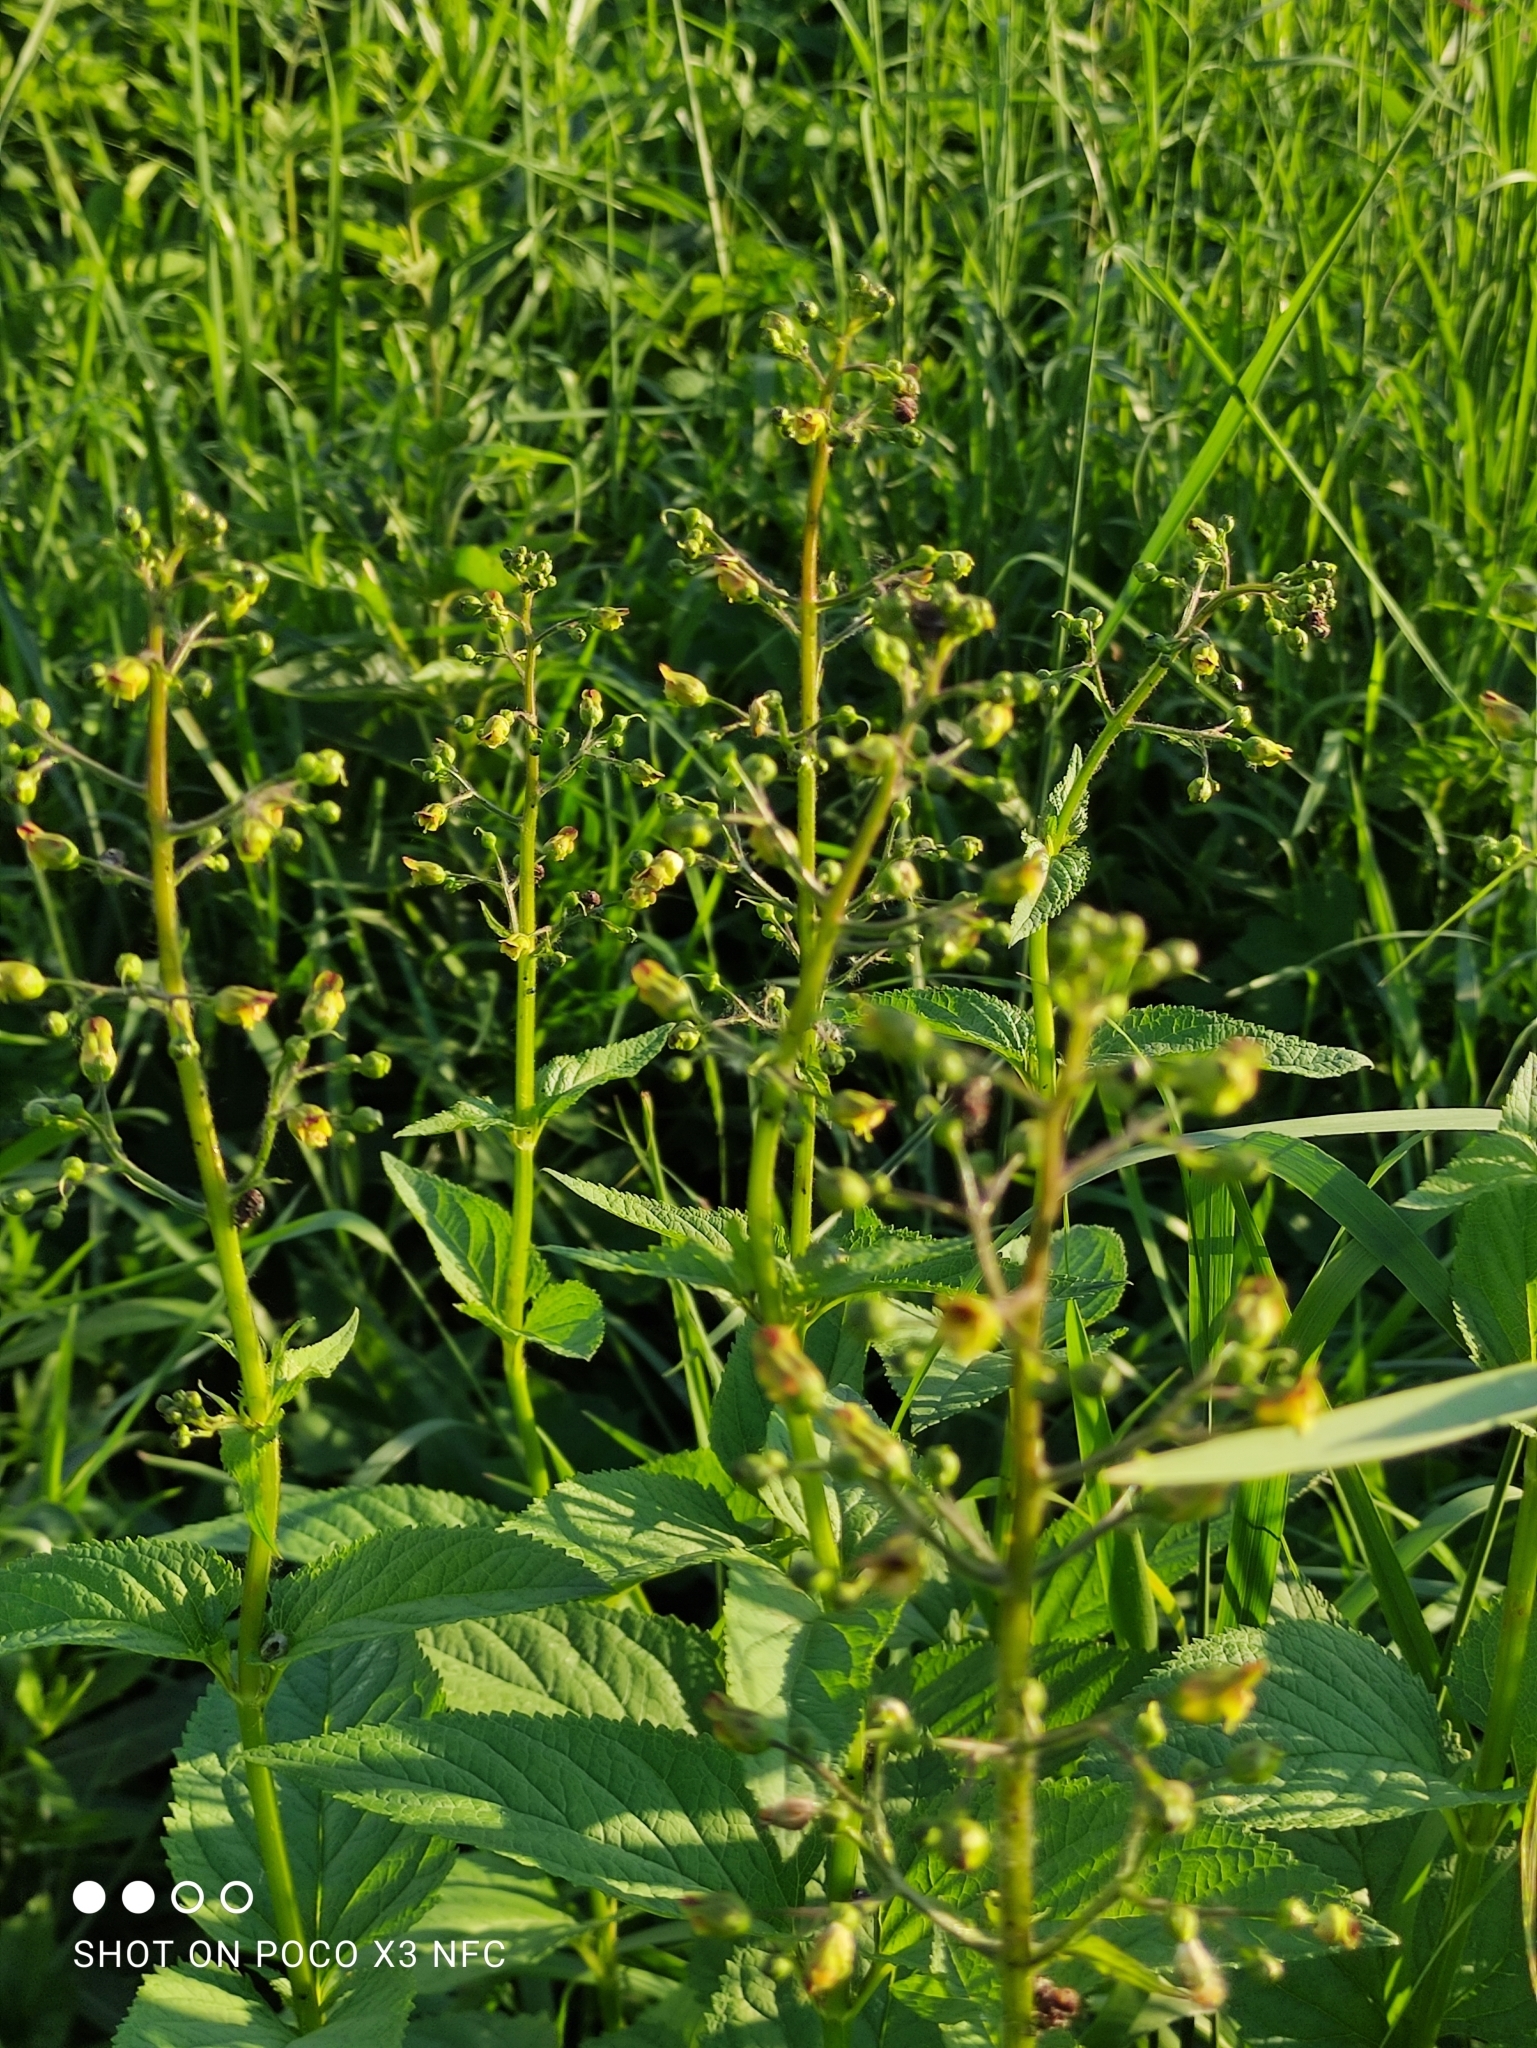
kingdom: Plantae
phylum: Tracheophyta
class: Magnoliopsida
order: Lamiales
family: Scrophulariaceae
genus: Scrophularia
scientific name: Scrophularia nodosa
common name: Common figwort
